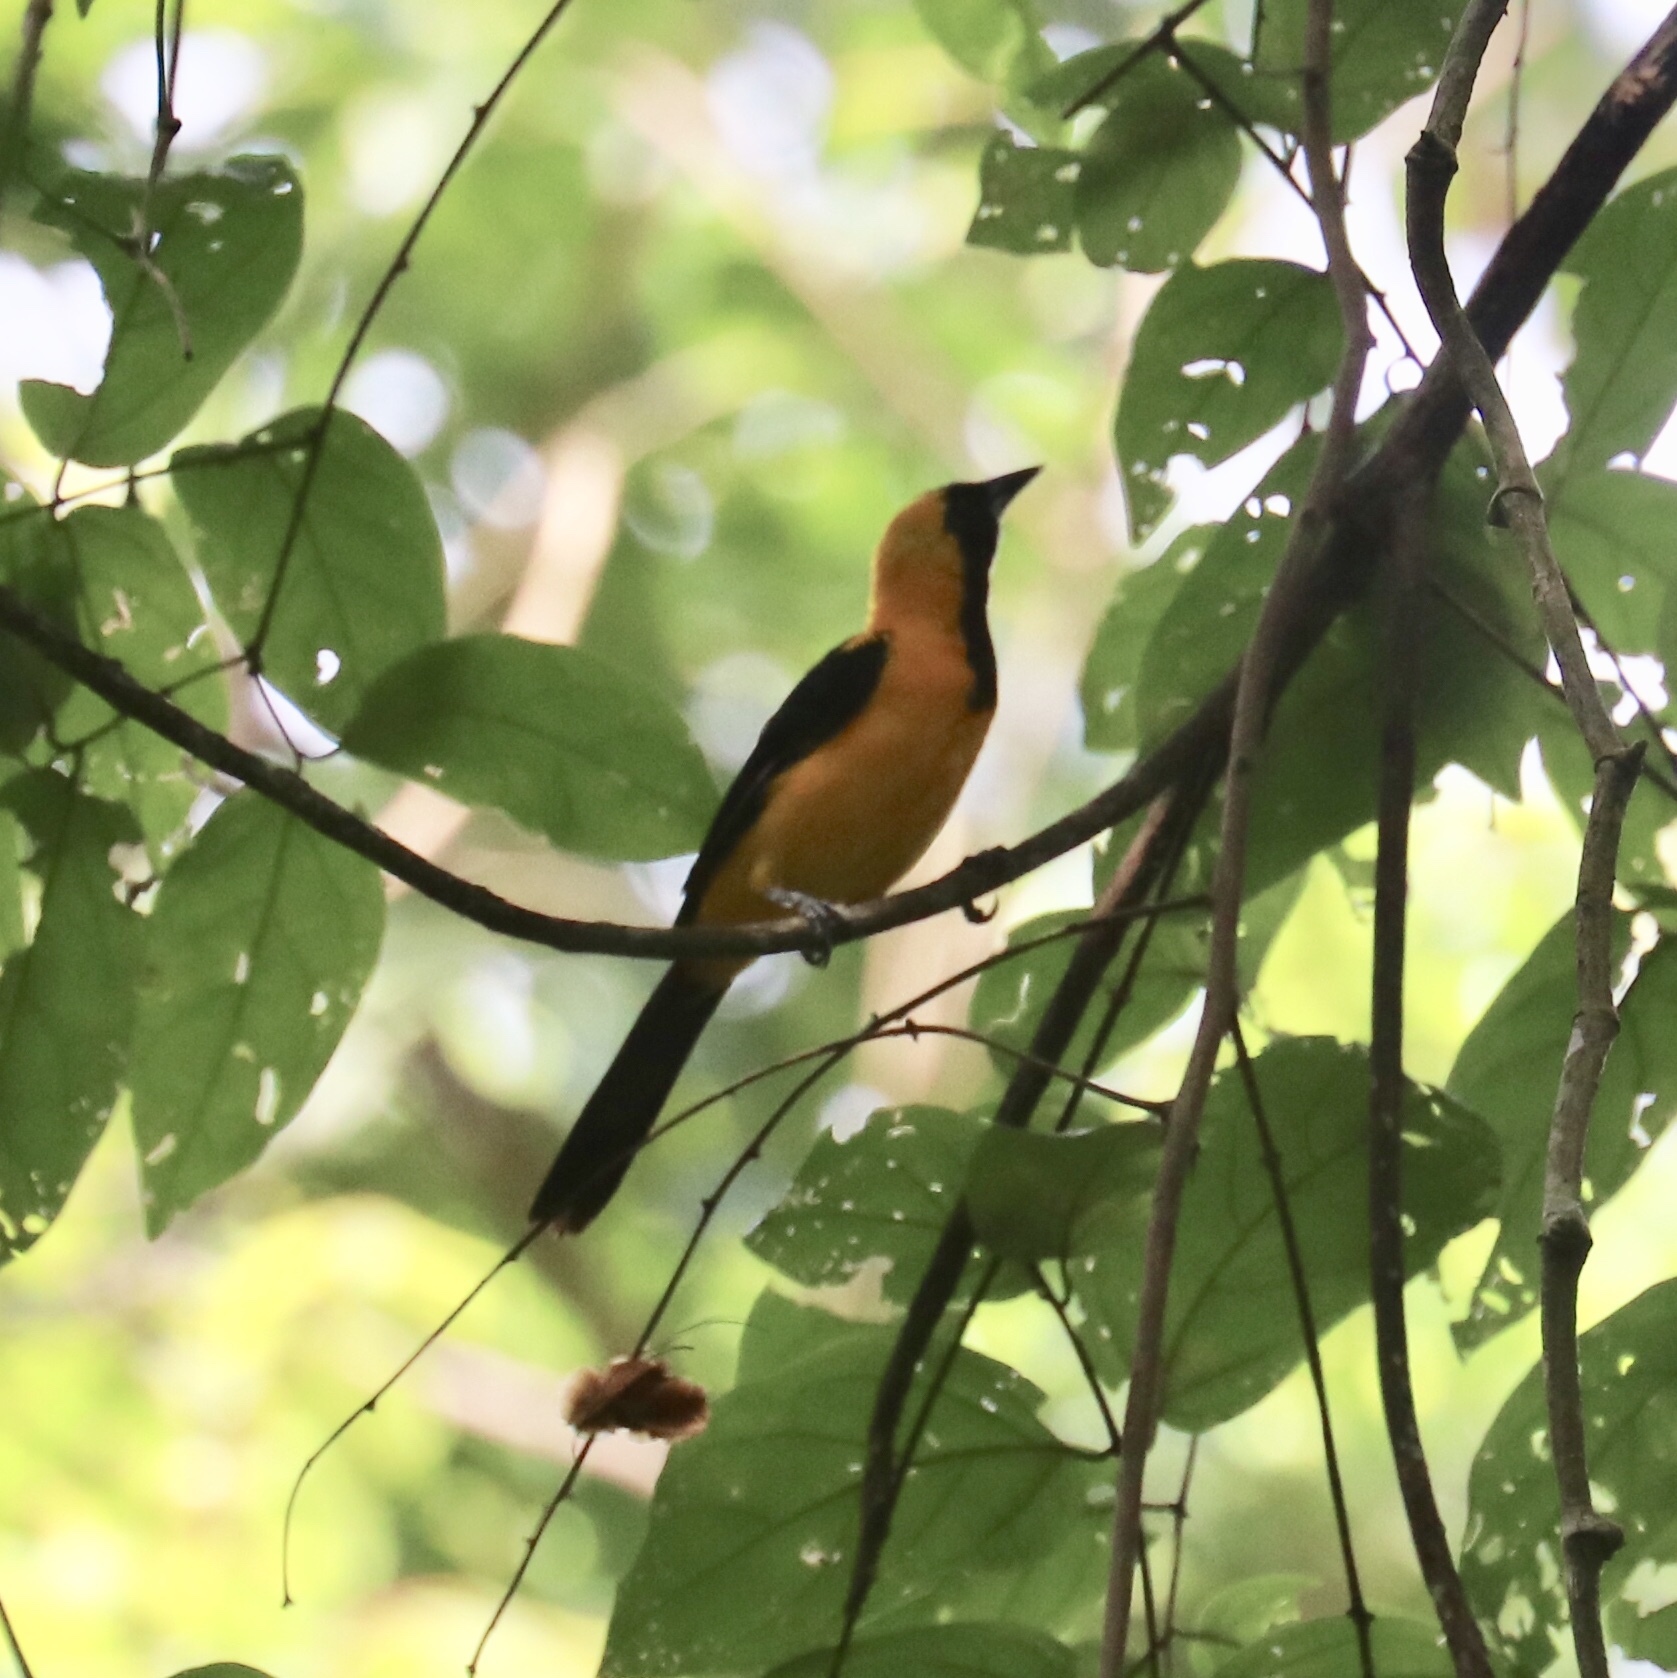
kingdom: Animalia
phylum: Chordata
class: Aves
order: Passeriformes
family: Icteridae
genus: Icterus
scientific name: Icterus chrysater
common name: Yellow-backed oriole
